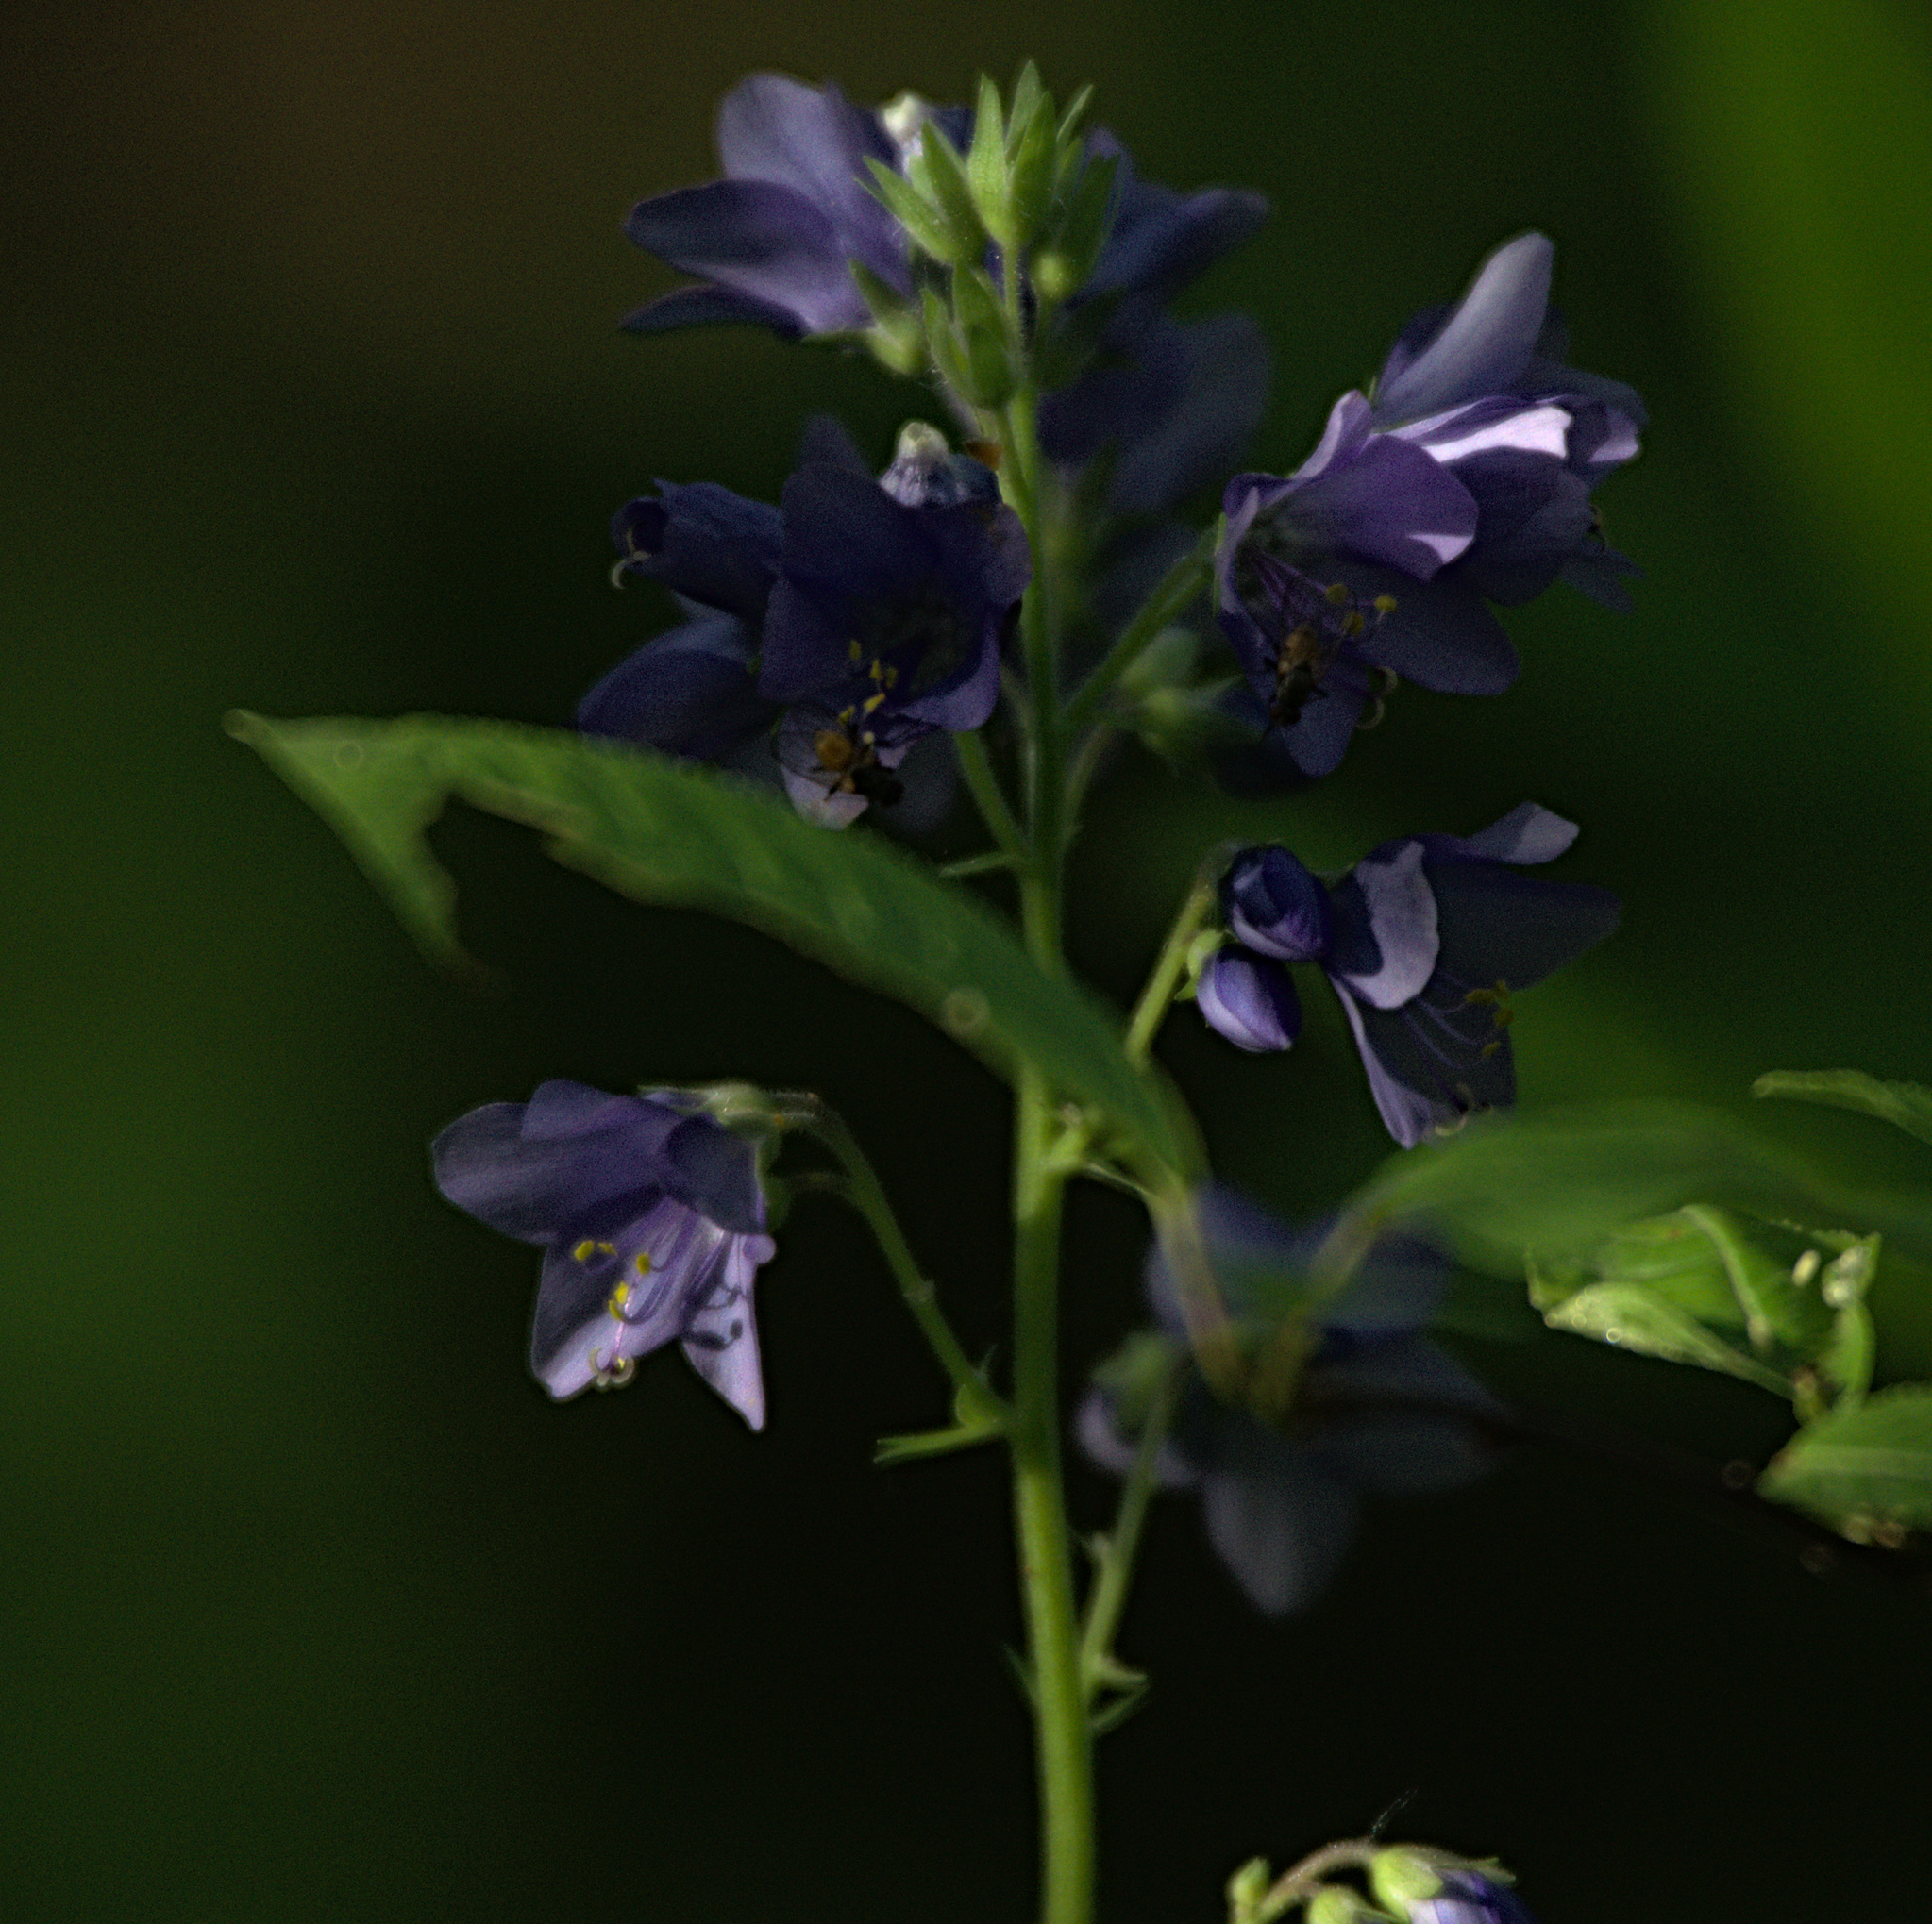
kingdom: Plantae
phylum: Tracheophyta
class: Magnoliopsida
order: Ericales
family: Polemoniaceae
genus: Polemonium
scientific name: Polemonium caeruleum
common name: Jacob's-ladder
